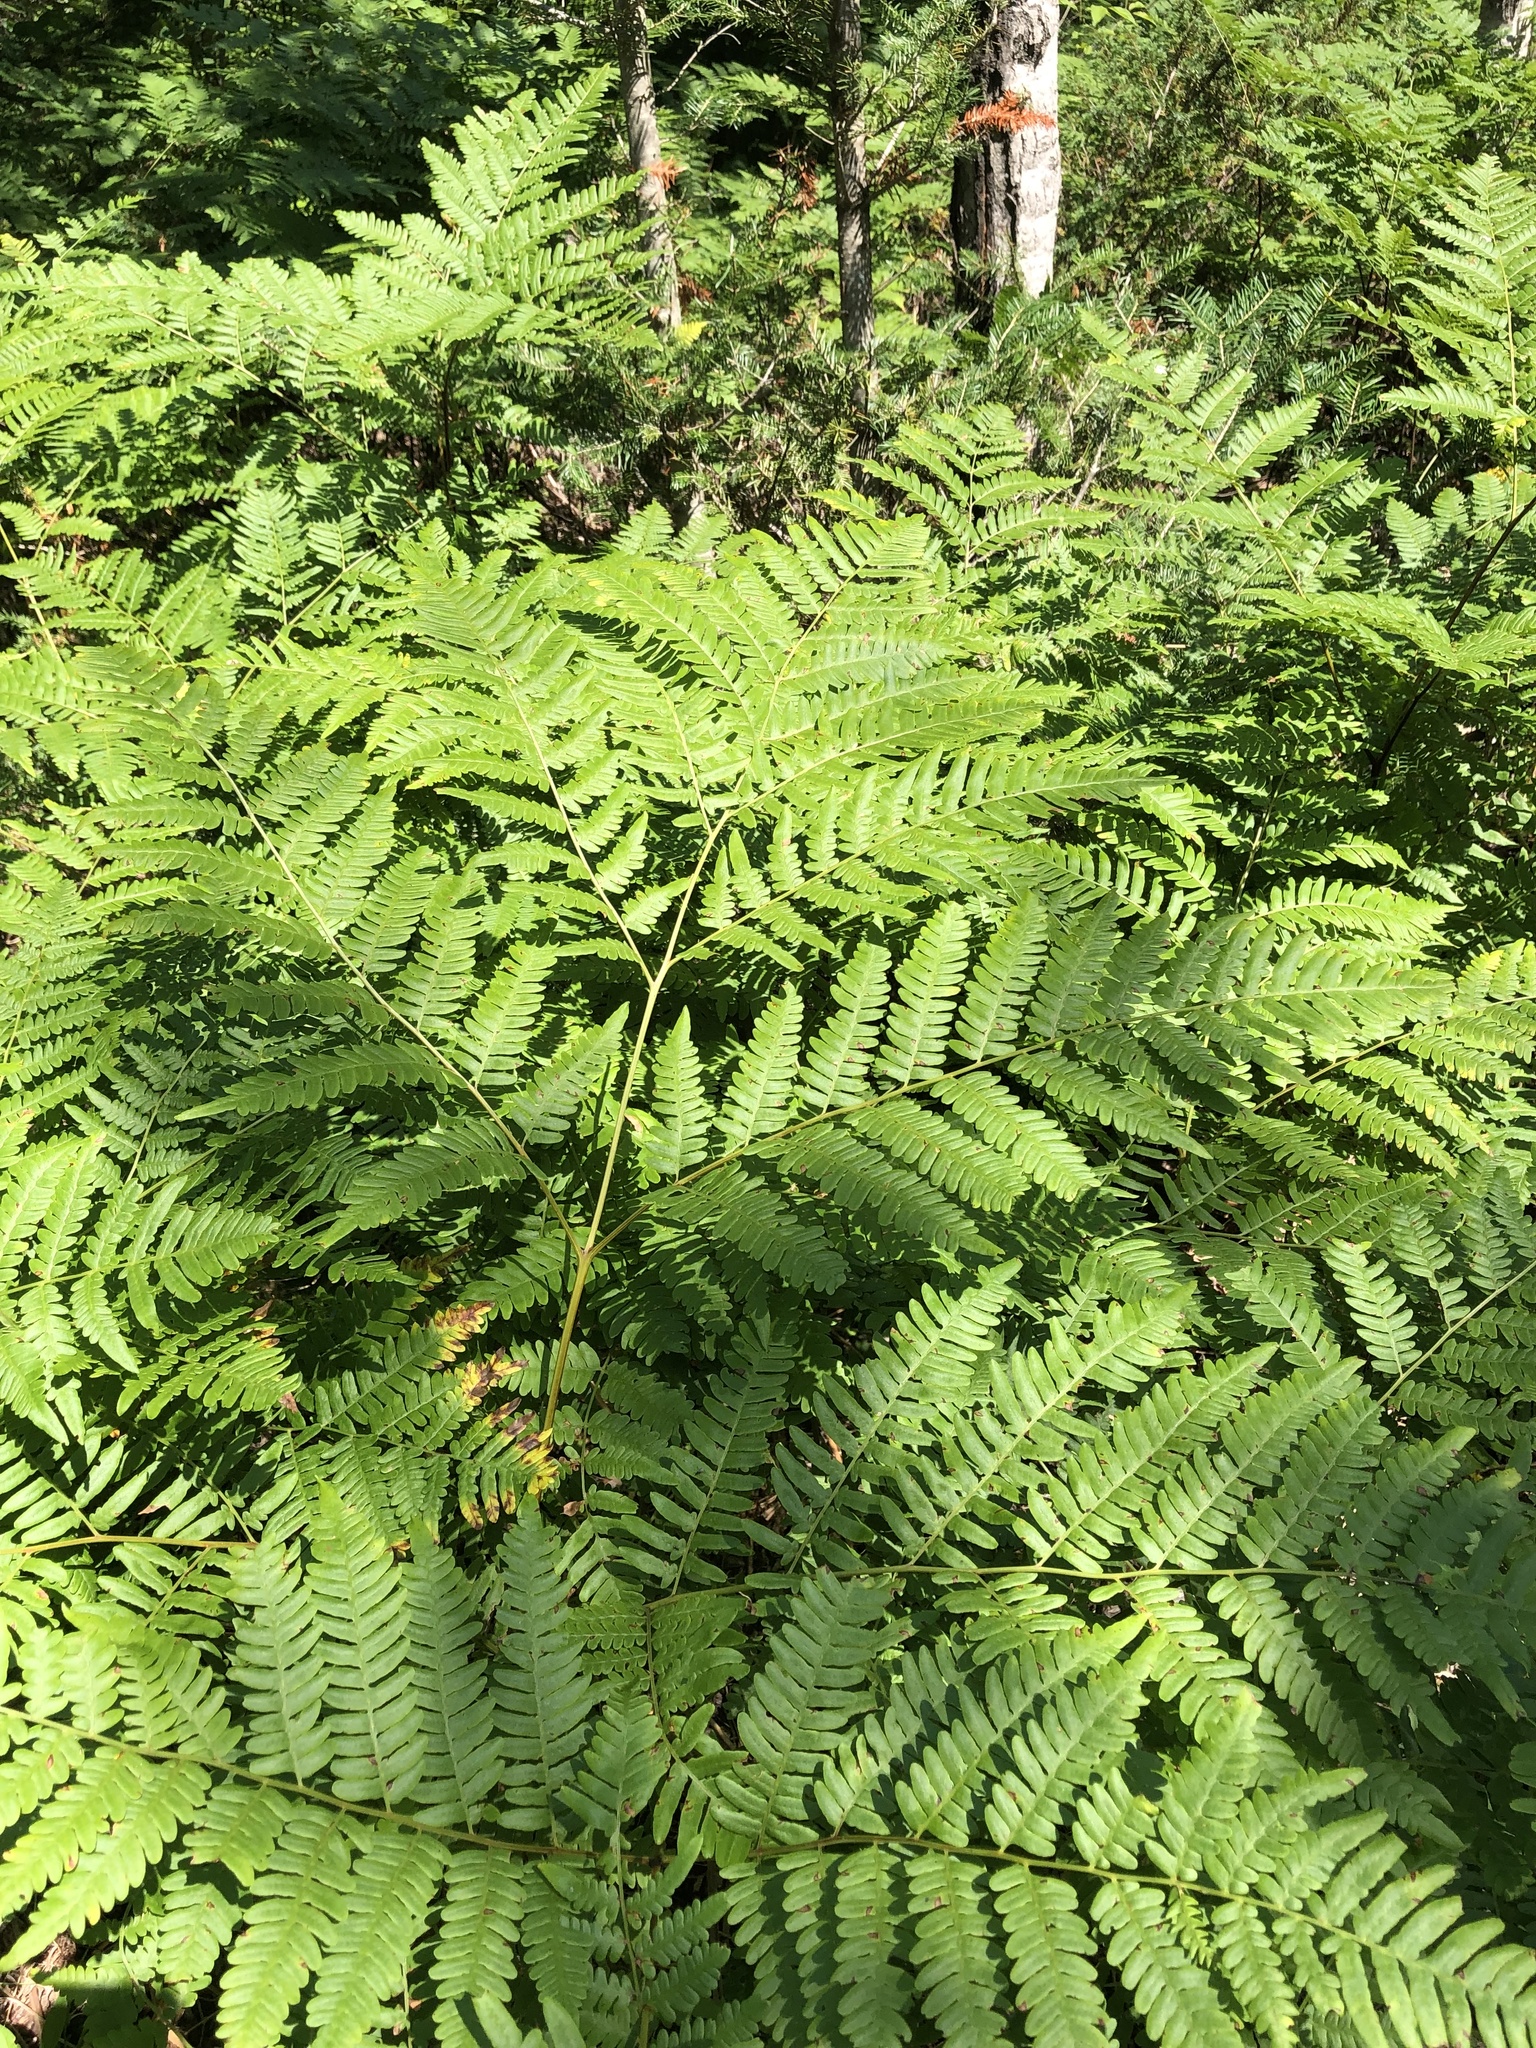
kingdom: Plantae
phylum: Tracheophyta
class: Polypodiopsida
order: Polypodiales
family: Dennstaedtiaceae
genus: Pteridium
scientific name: Pteridium aquilinum
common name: Bracken
